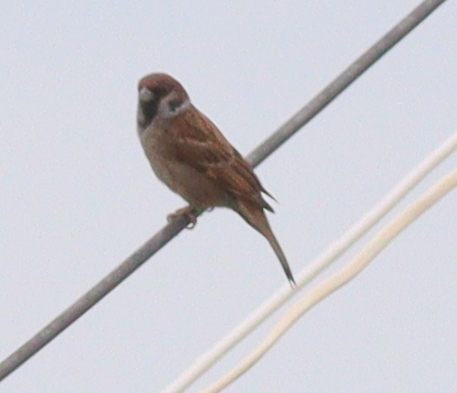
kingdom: Animalia
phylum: Chordata
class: Aves
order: Passeriformes
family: Passeridae
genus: Passer
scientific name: Passer montanus
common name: Eurasian tree sparrow
